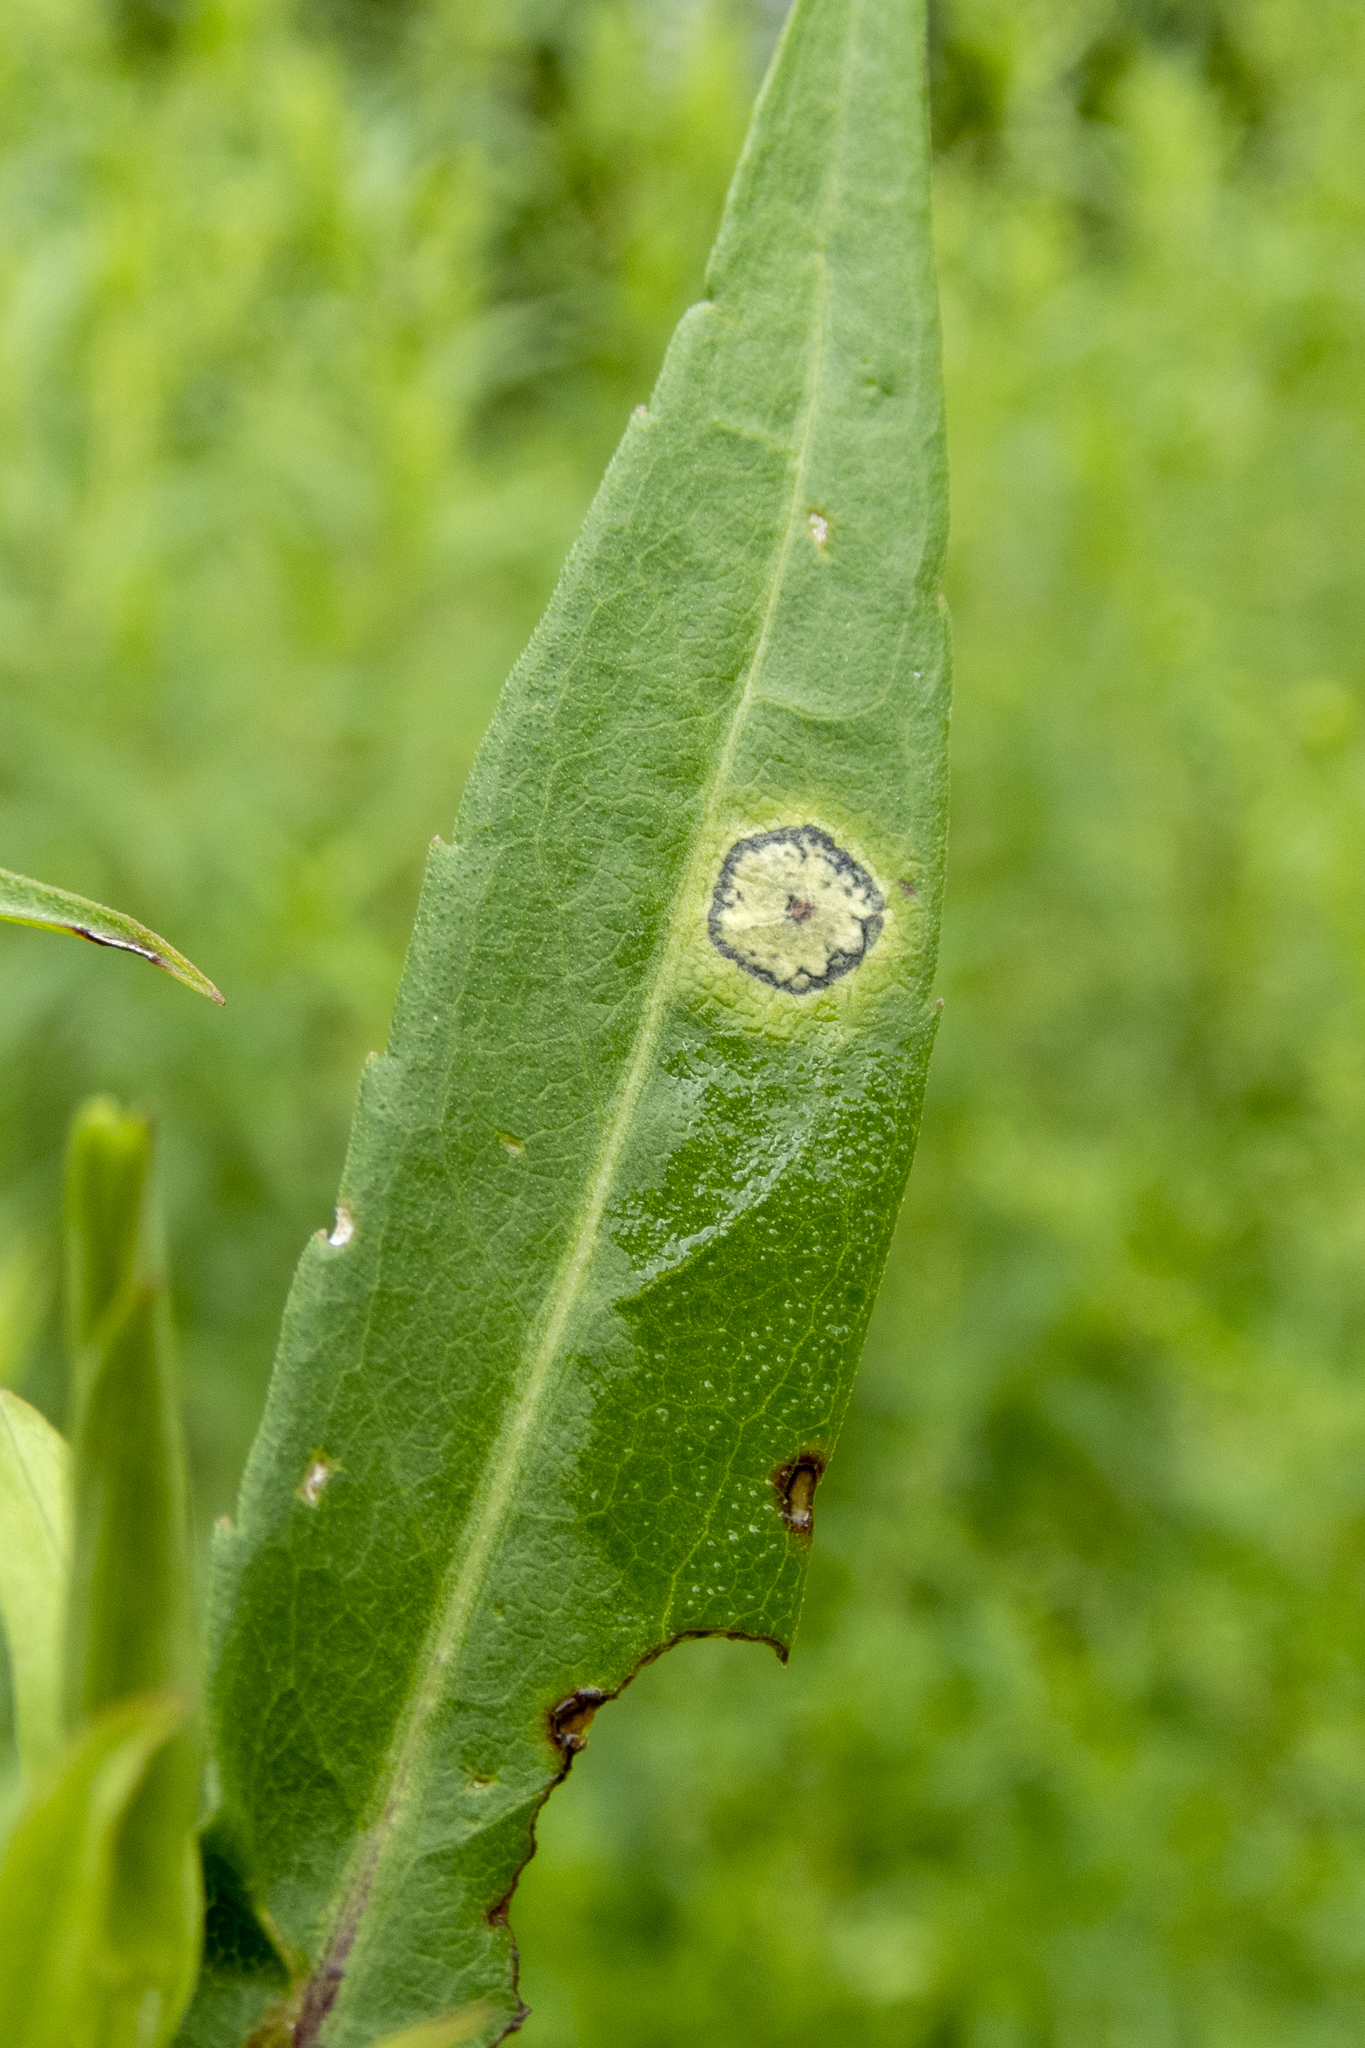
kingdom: Animalia
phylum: Arthropoda
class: Insecta
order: Diptera
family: Cecidomyiidae
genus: Asteromyia
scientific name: Asteromyia carbonifera
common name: Carbonifera goldenrod gall midge
